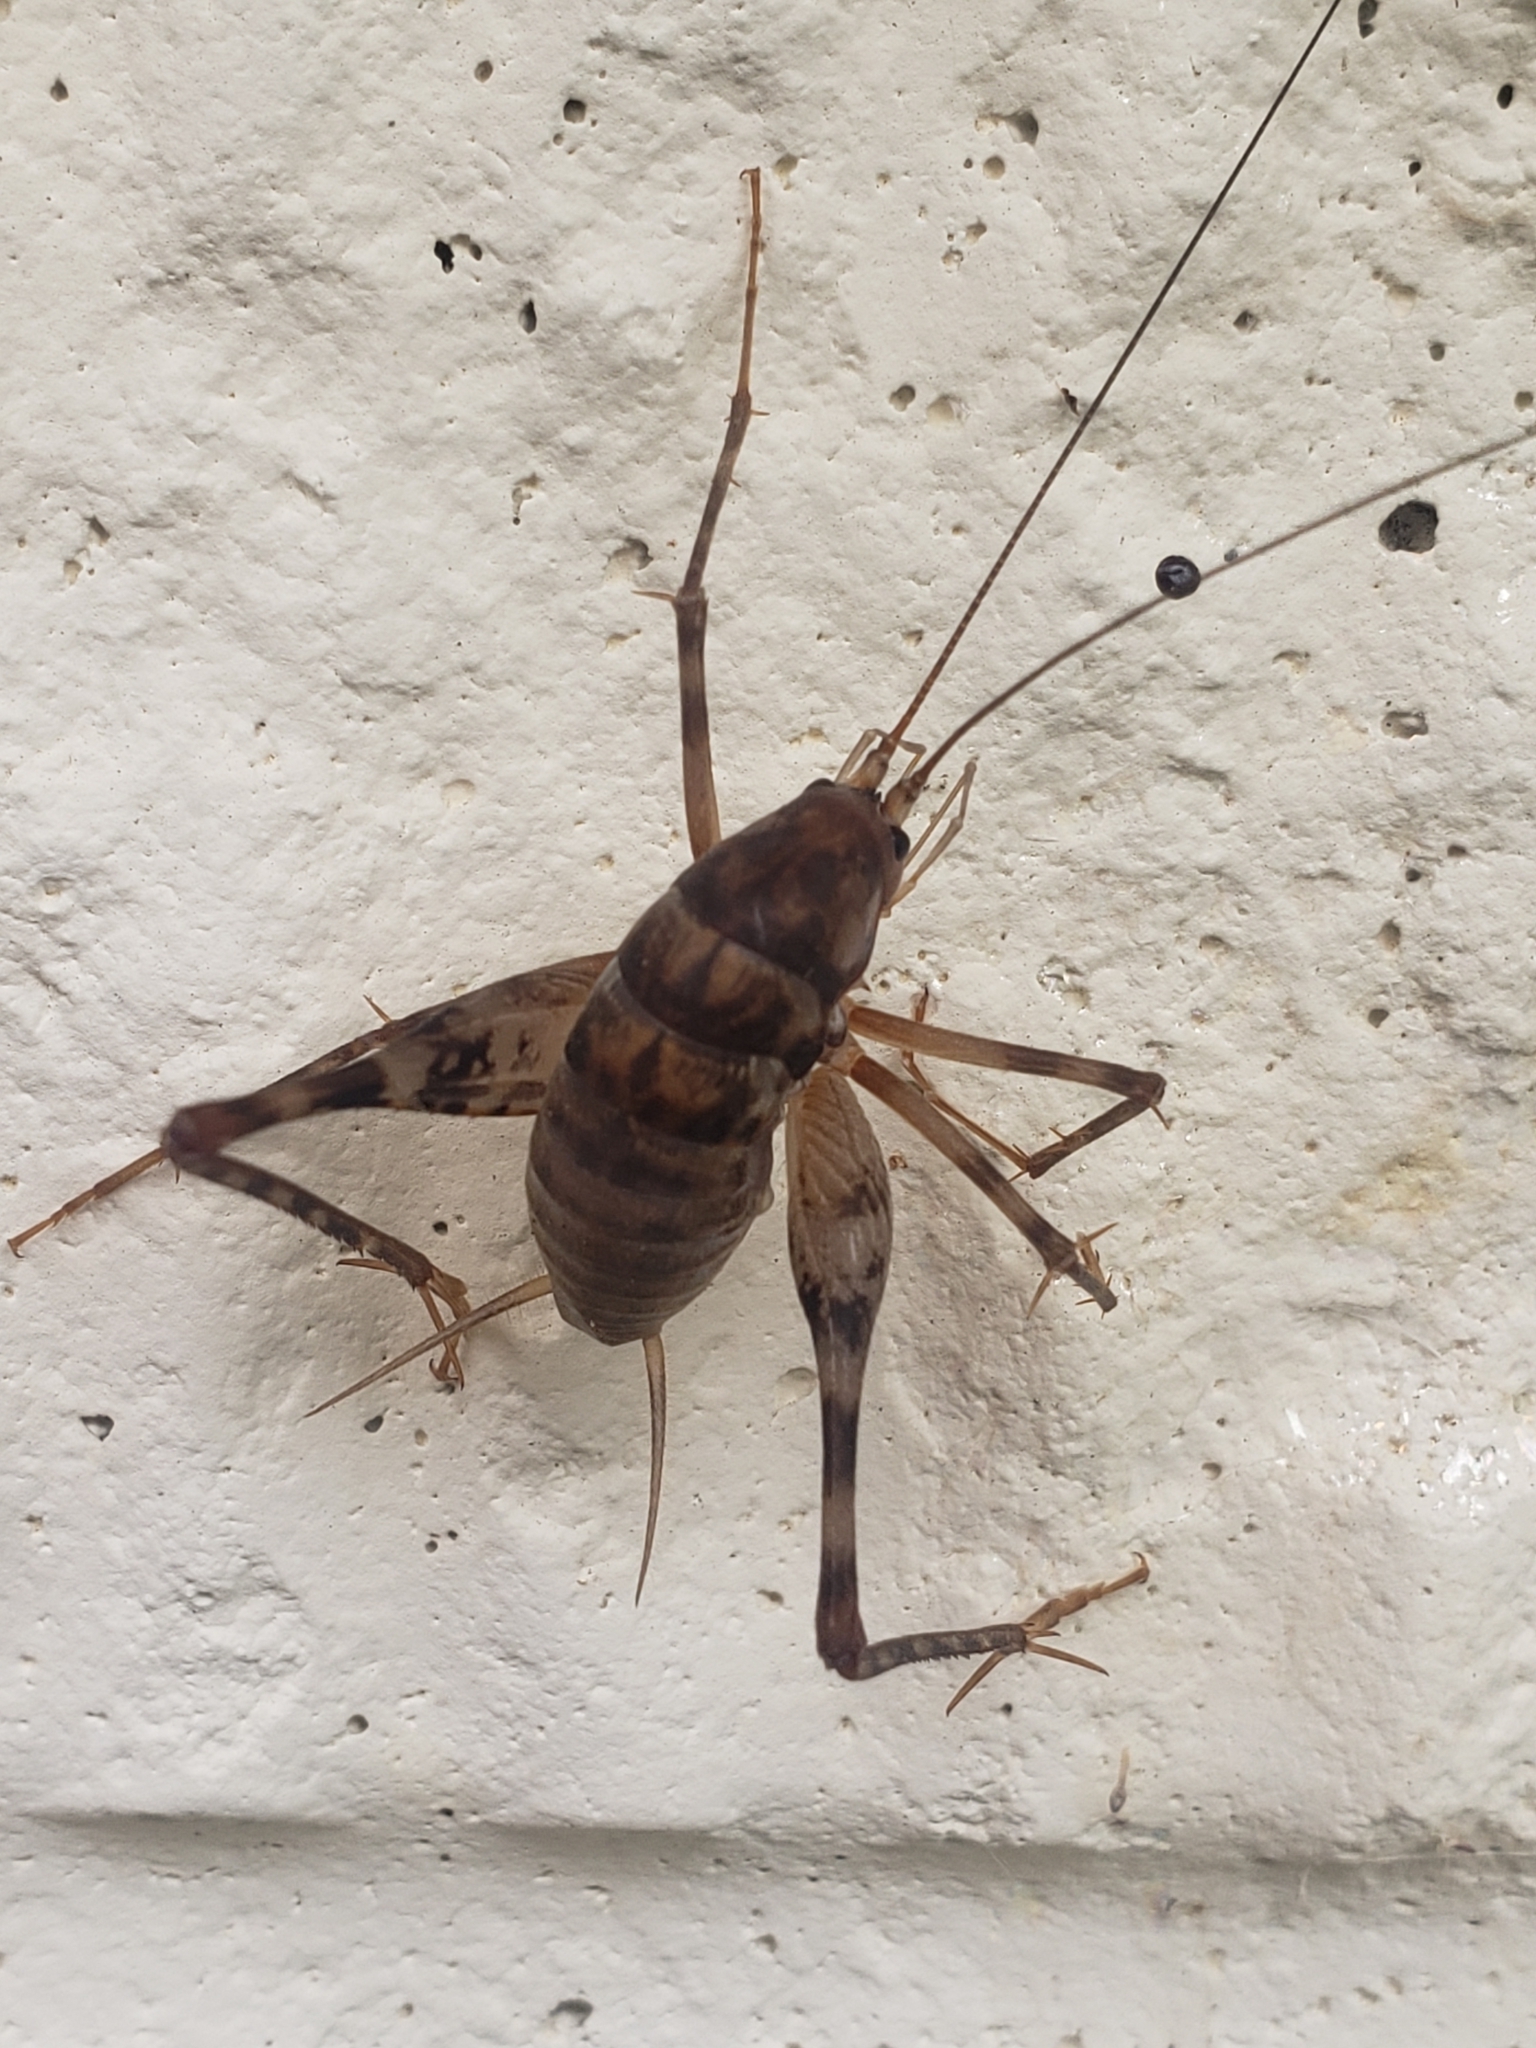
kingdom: Animalia
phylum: Arthropoda
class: Insecta
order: Orthoptera
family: Rhaphidophoridae
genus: Tachycines
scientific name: Tachycines asynamorus
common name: Greenhouse camel cricket
